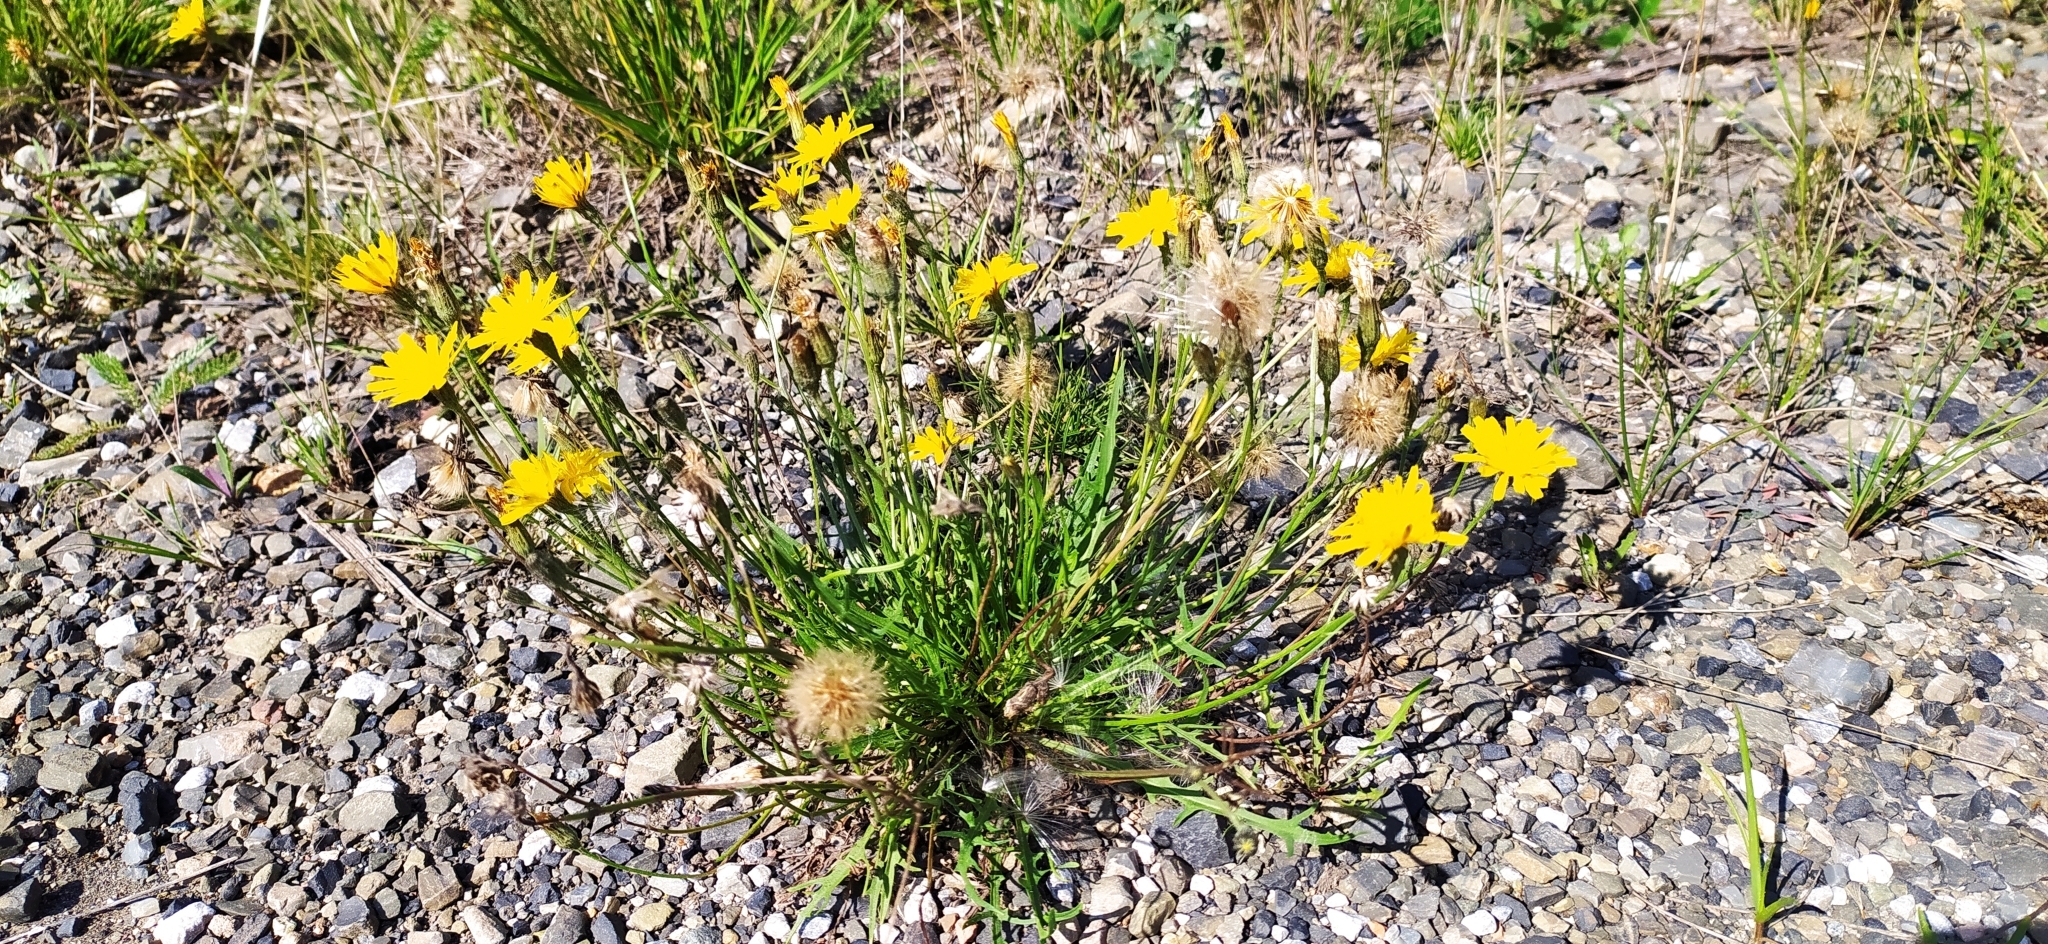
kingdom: Plantae
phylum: Tracheophyta
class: Magnoliopsida
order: Asterales
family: Asteraceae
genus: Scorzoneroides
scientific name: Scorzoneroides autumnalis
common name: Autumn hawkbit
